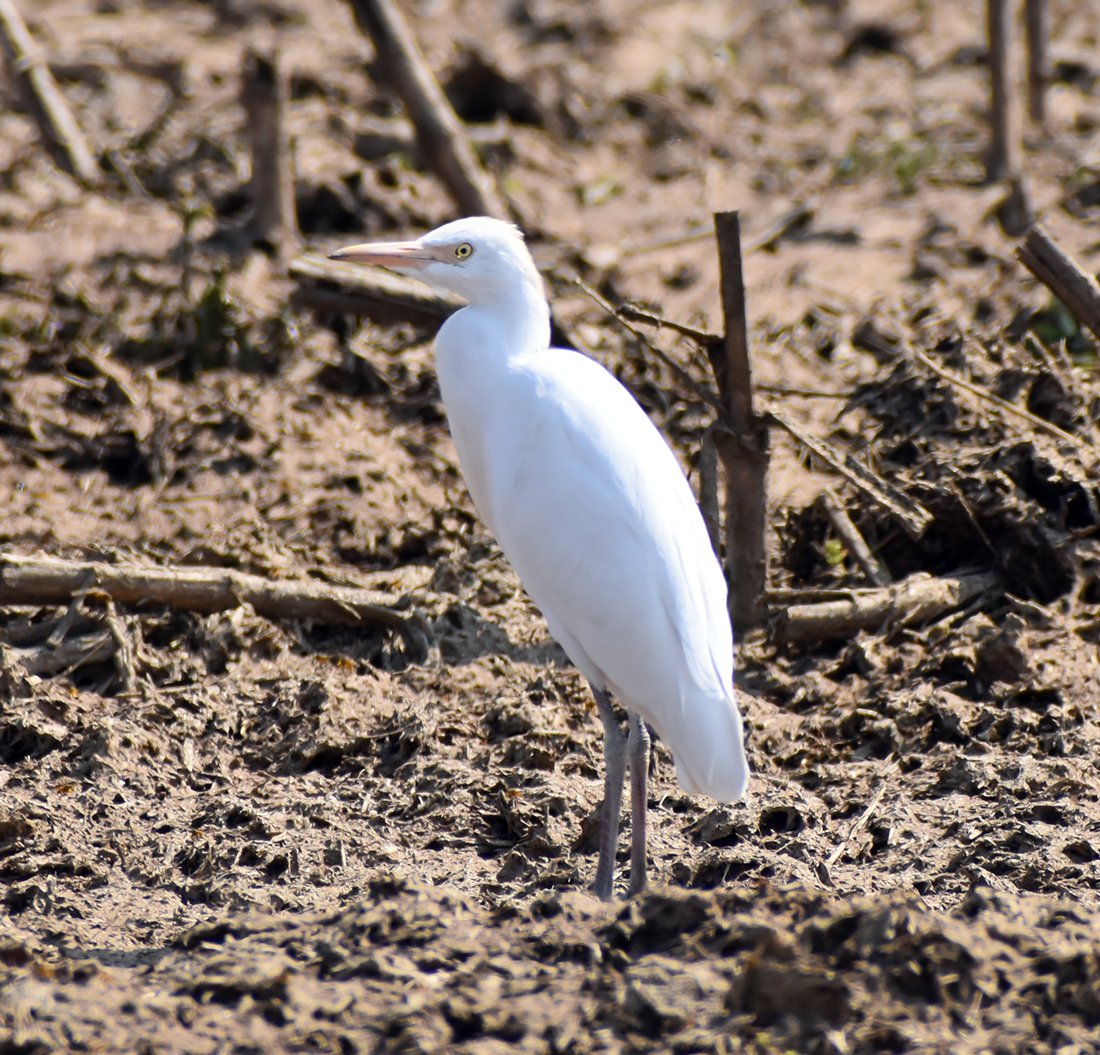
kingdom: Animalia
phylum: Chordata
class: Aves
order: Pelecaniformes
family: Ardeidae
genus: Bubulcus
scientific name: Bubulcus ibis
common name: Cattle egret
